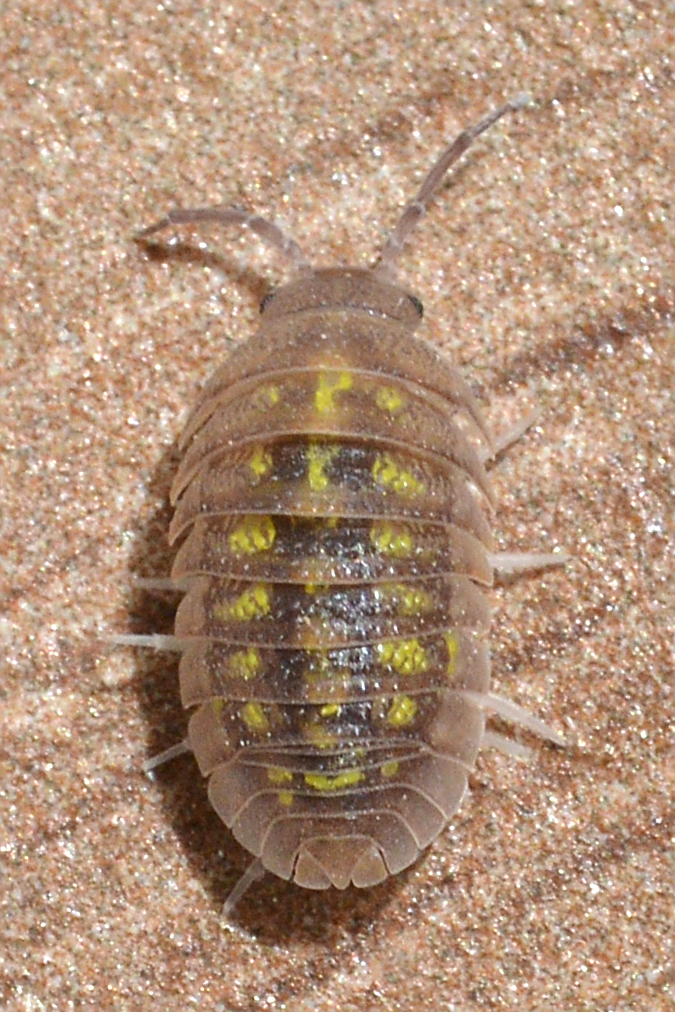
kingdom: Animalia
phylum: Arthropoda
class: Malacostraca
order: Isopoda
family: Armadillidiidae
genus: Armadillidium
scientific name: Armadillidium granulatum
